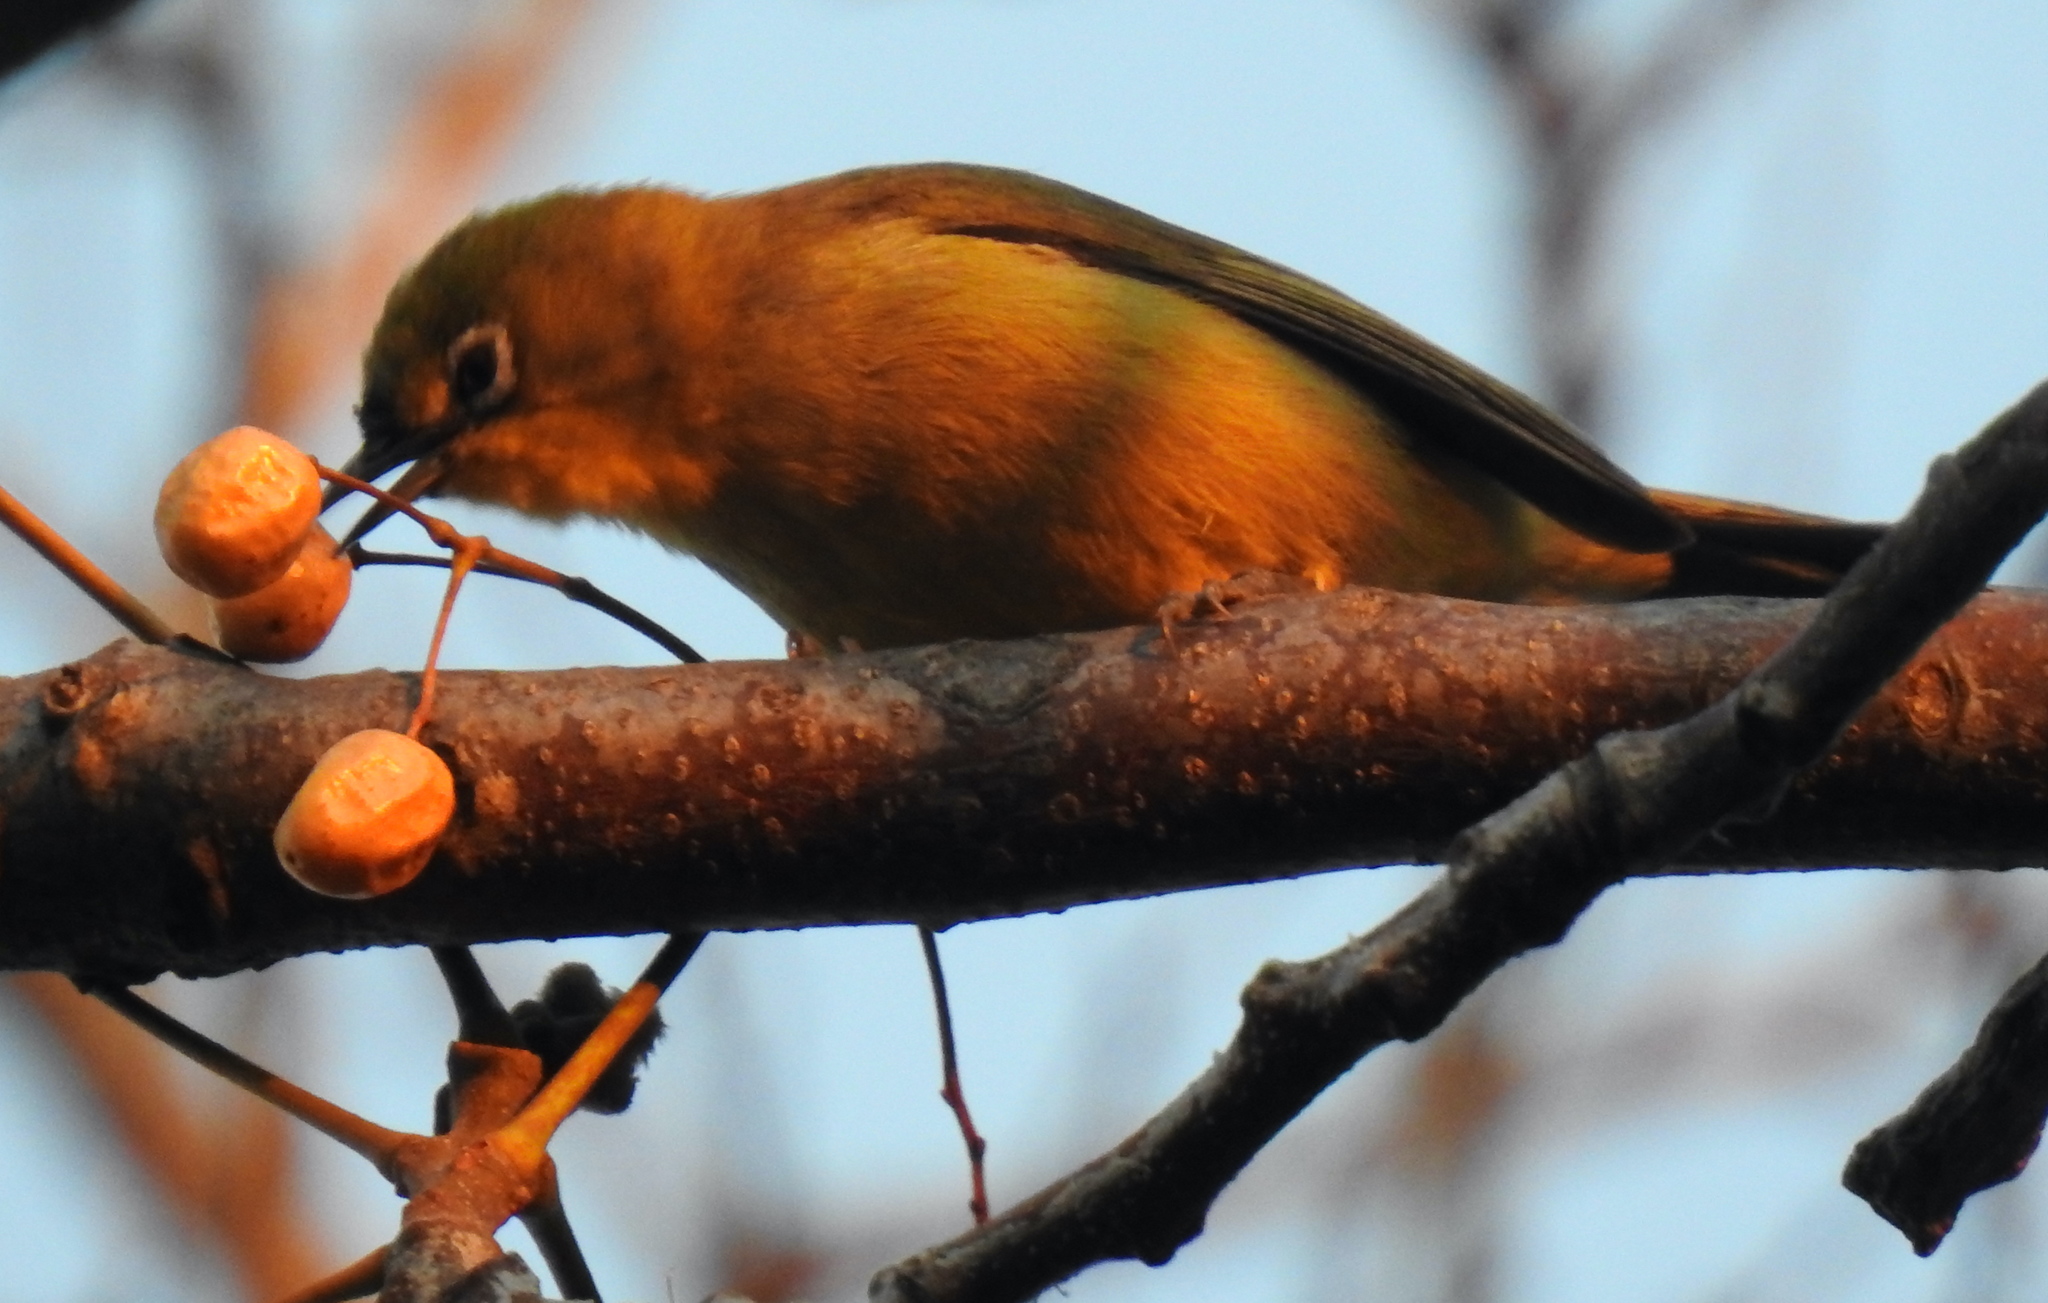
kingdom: Animalia
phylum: Chordata
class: Aves
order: Passeriformes
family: Zosteropidae
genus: Zosterops
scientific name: Zosterops virens
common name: Cape white-eye
